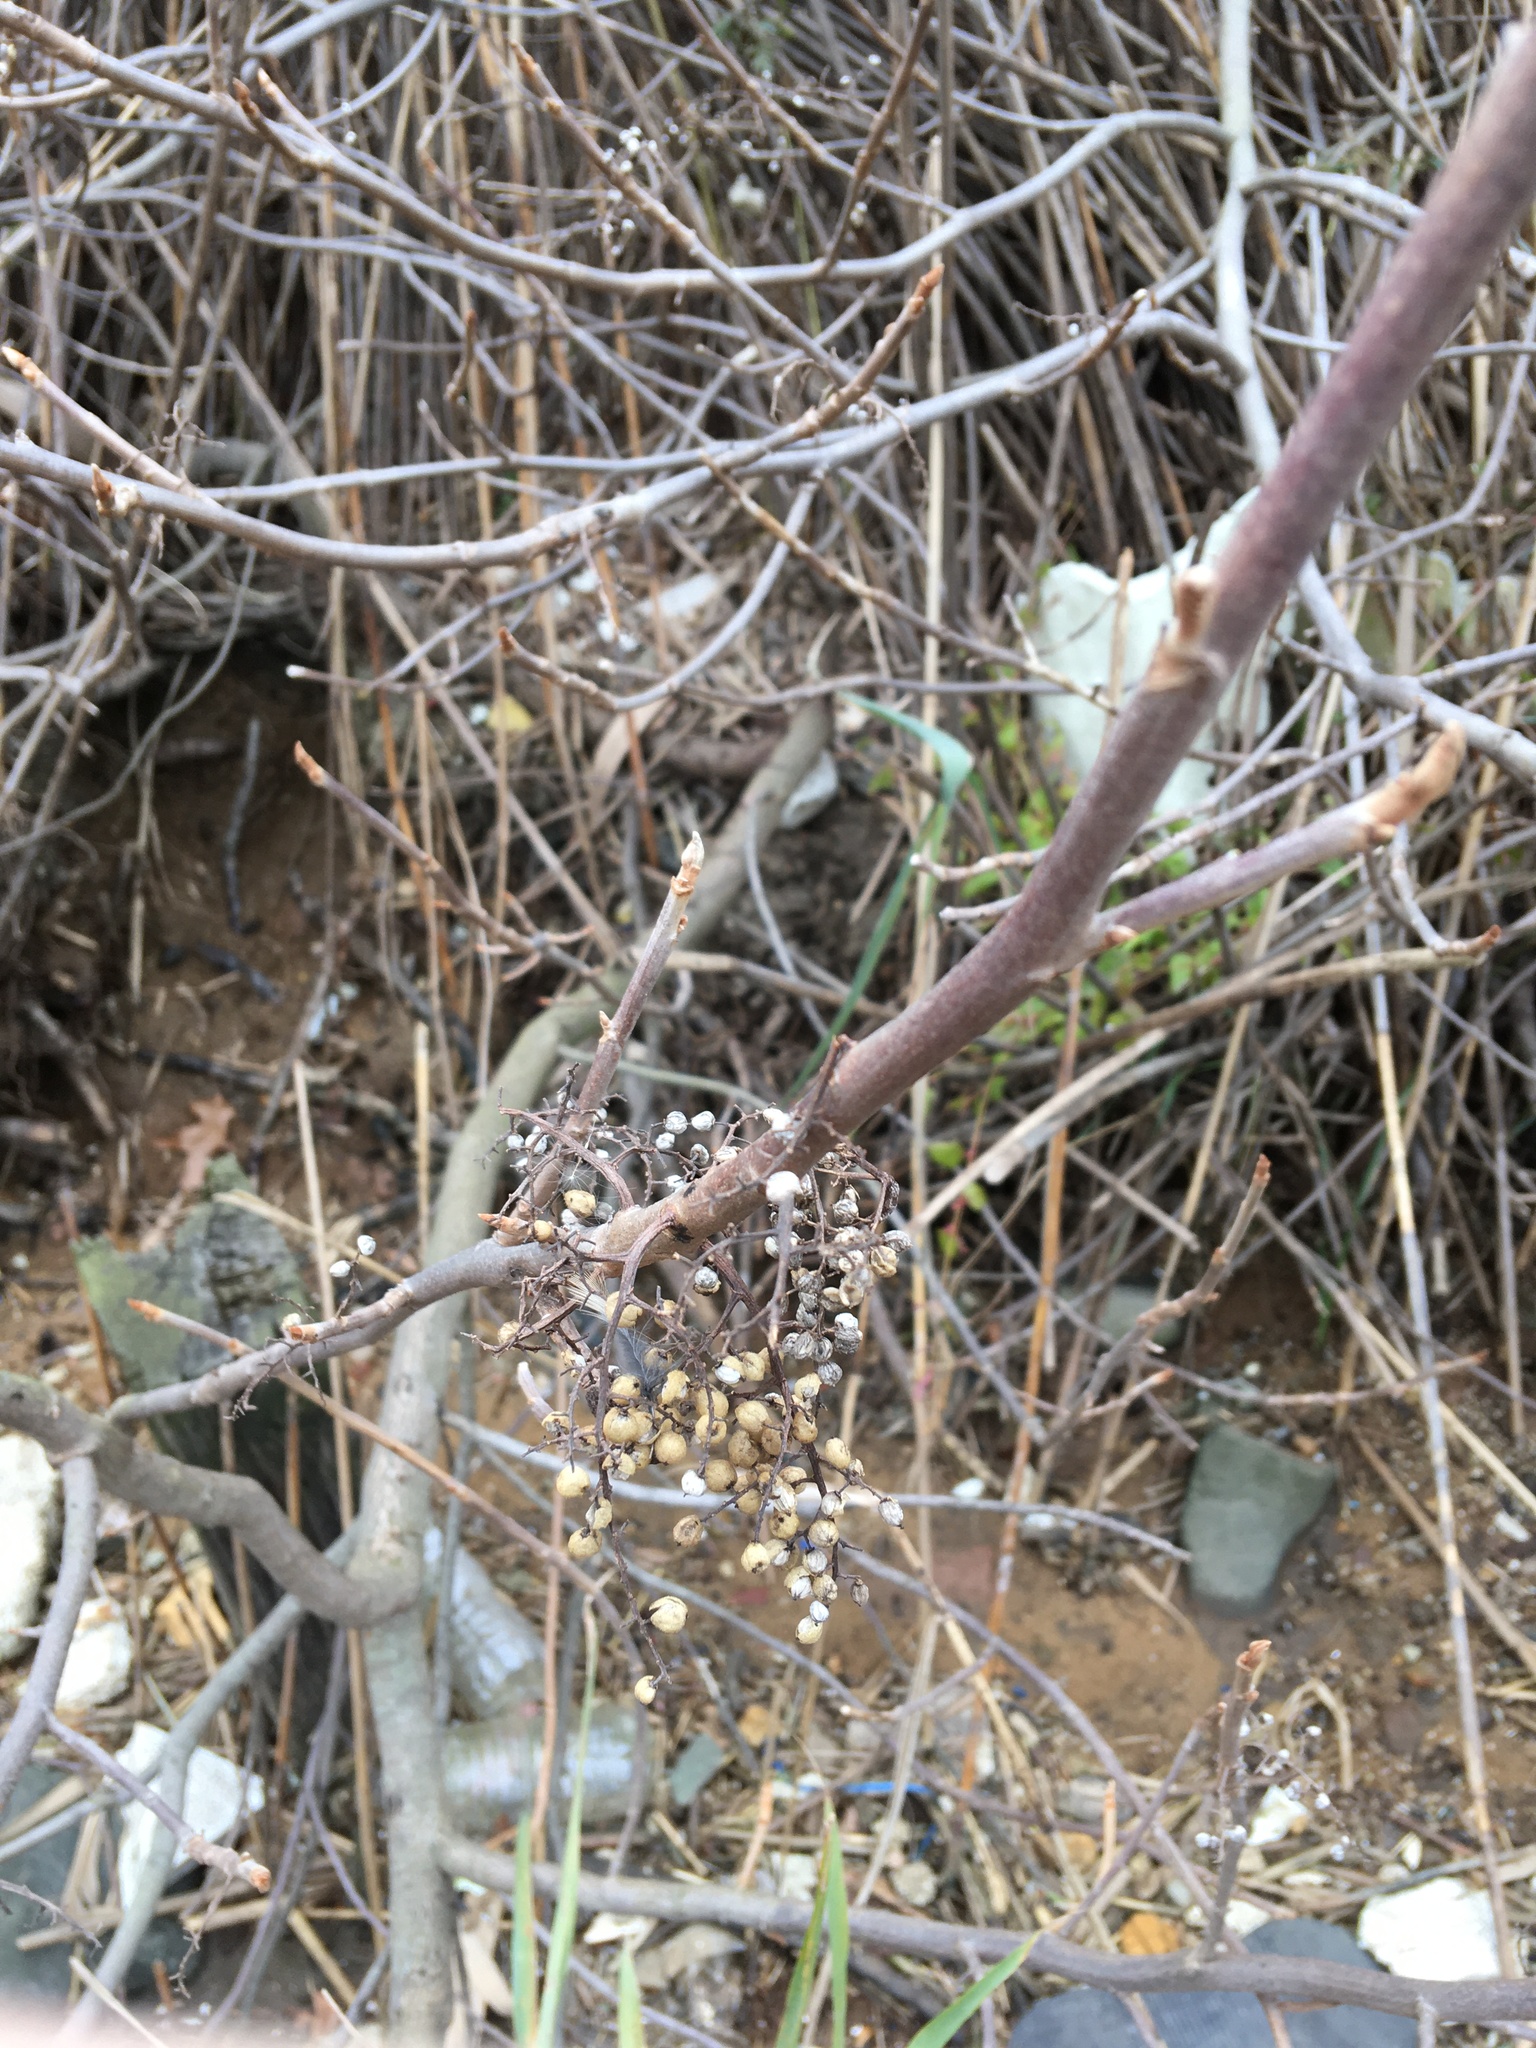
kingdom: Plantae
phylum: Tracheophyta
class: Magnoliopsida
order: Sapindales
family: Anacardiaceae
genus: Toxicodendron
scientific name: Toxicodendron radicans
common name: Poison ivy
